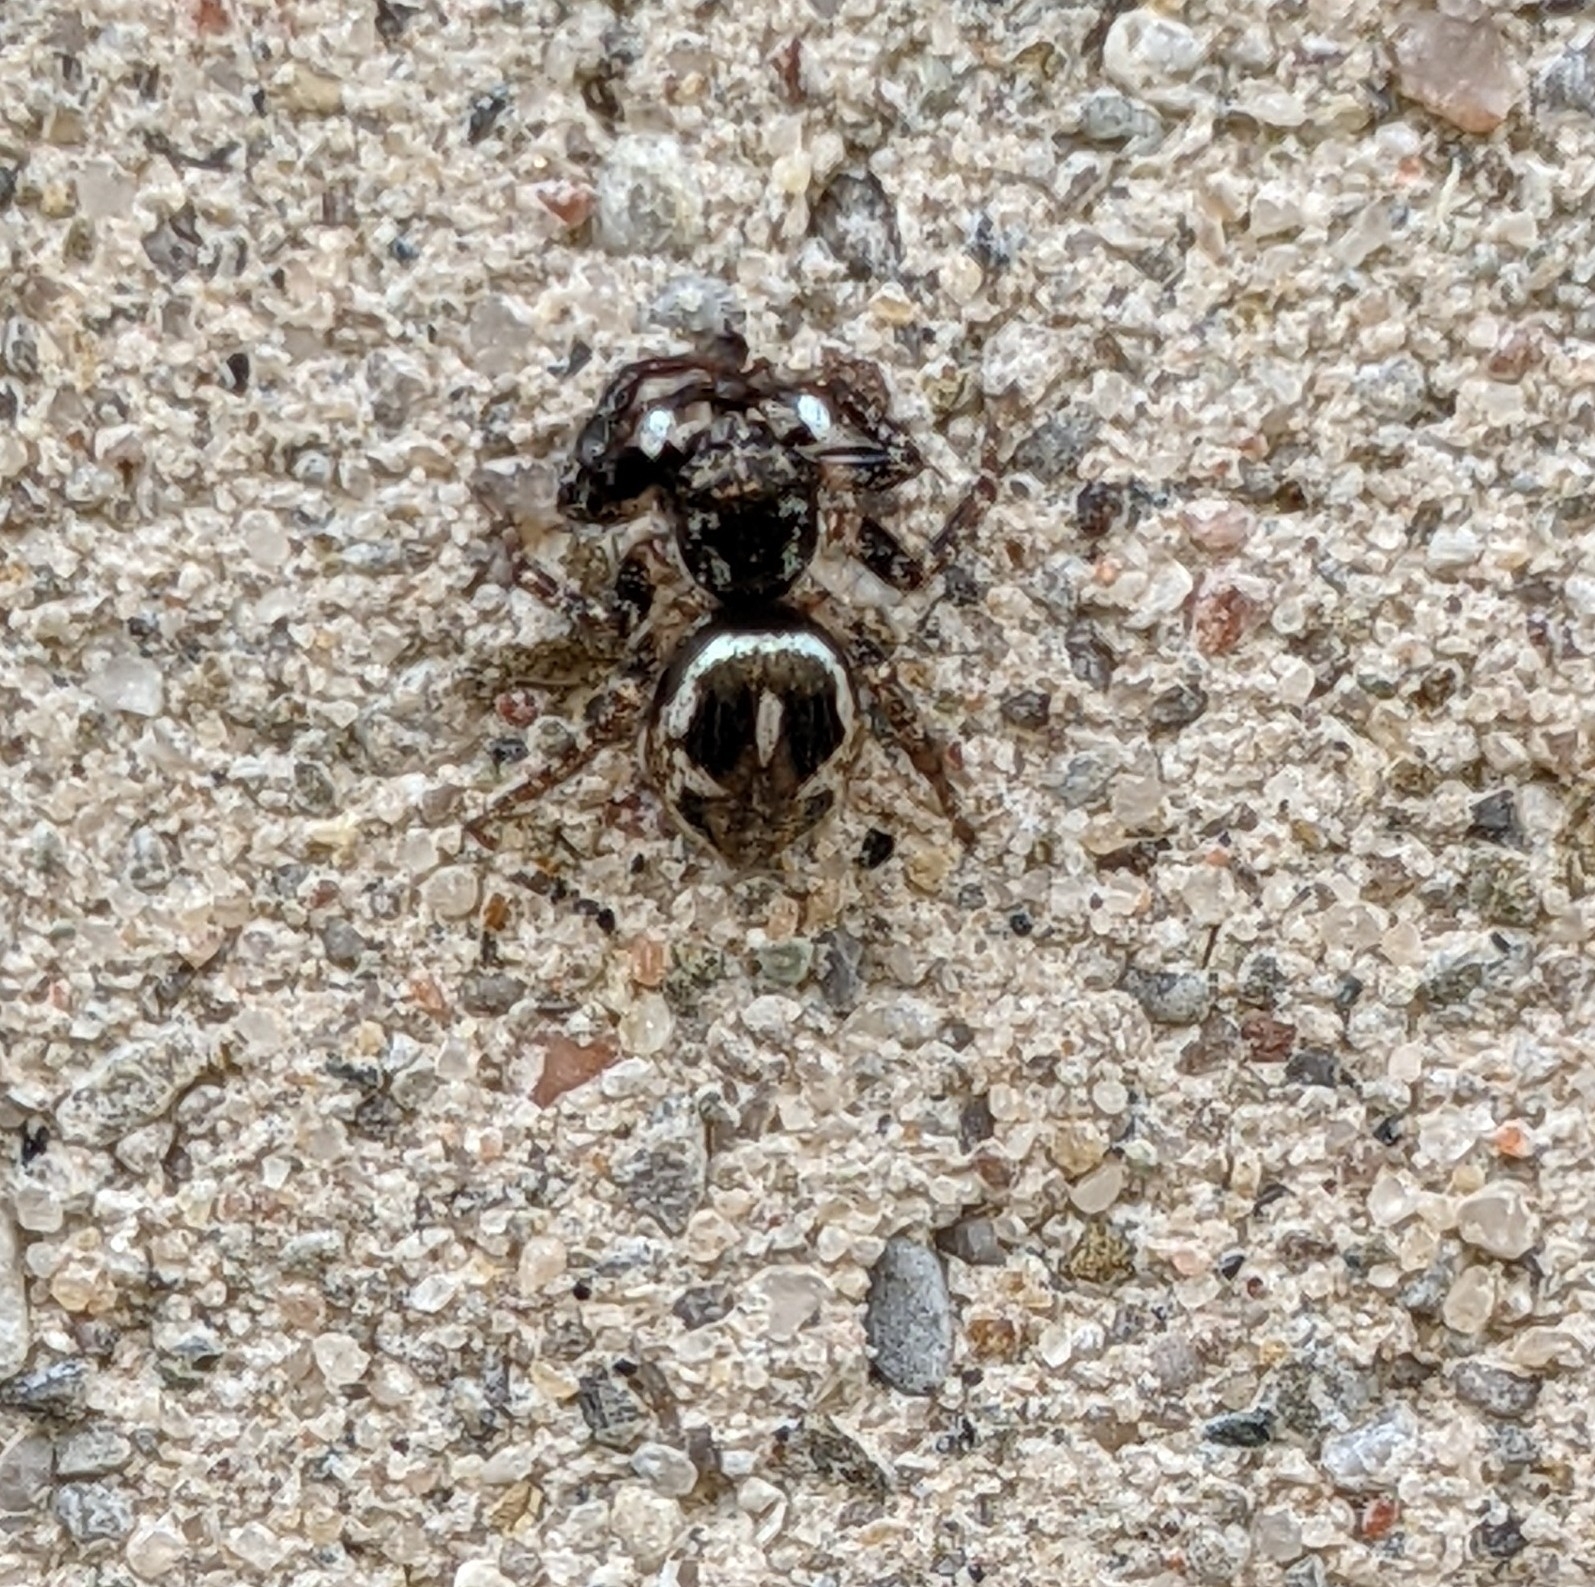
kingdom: Animalia
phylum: Arthropoda
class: Arachnida
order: Araneae
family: Salticidae
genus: Anasaitis
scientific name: Anasaitis canosa
